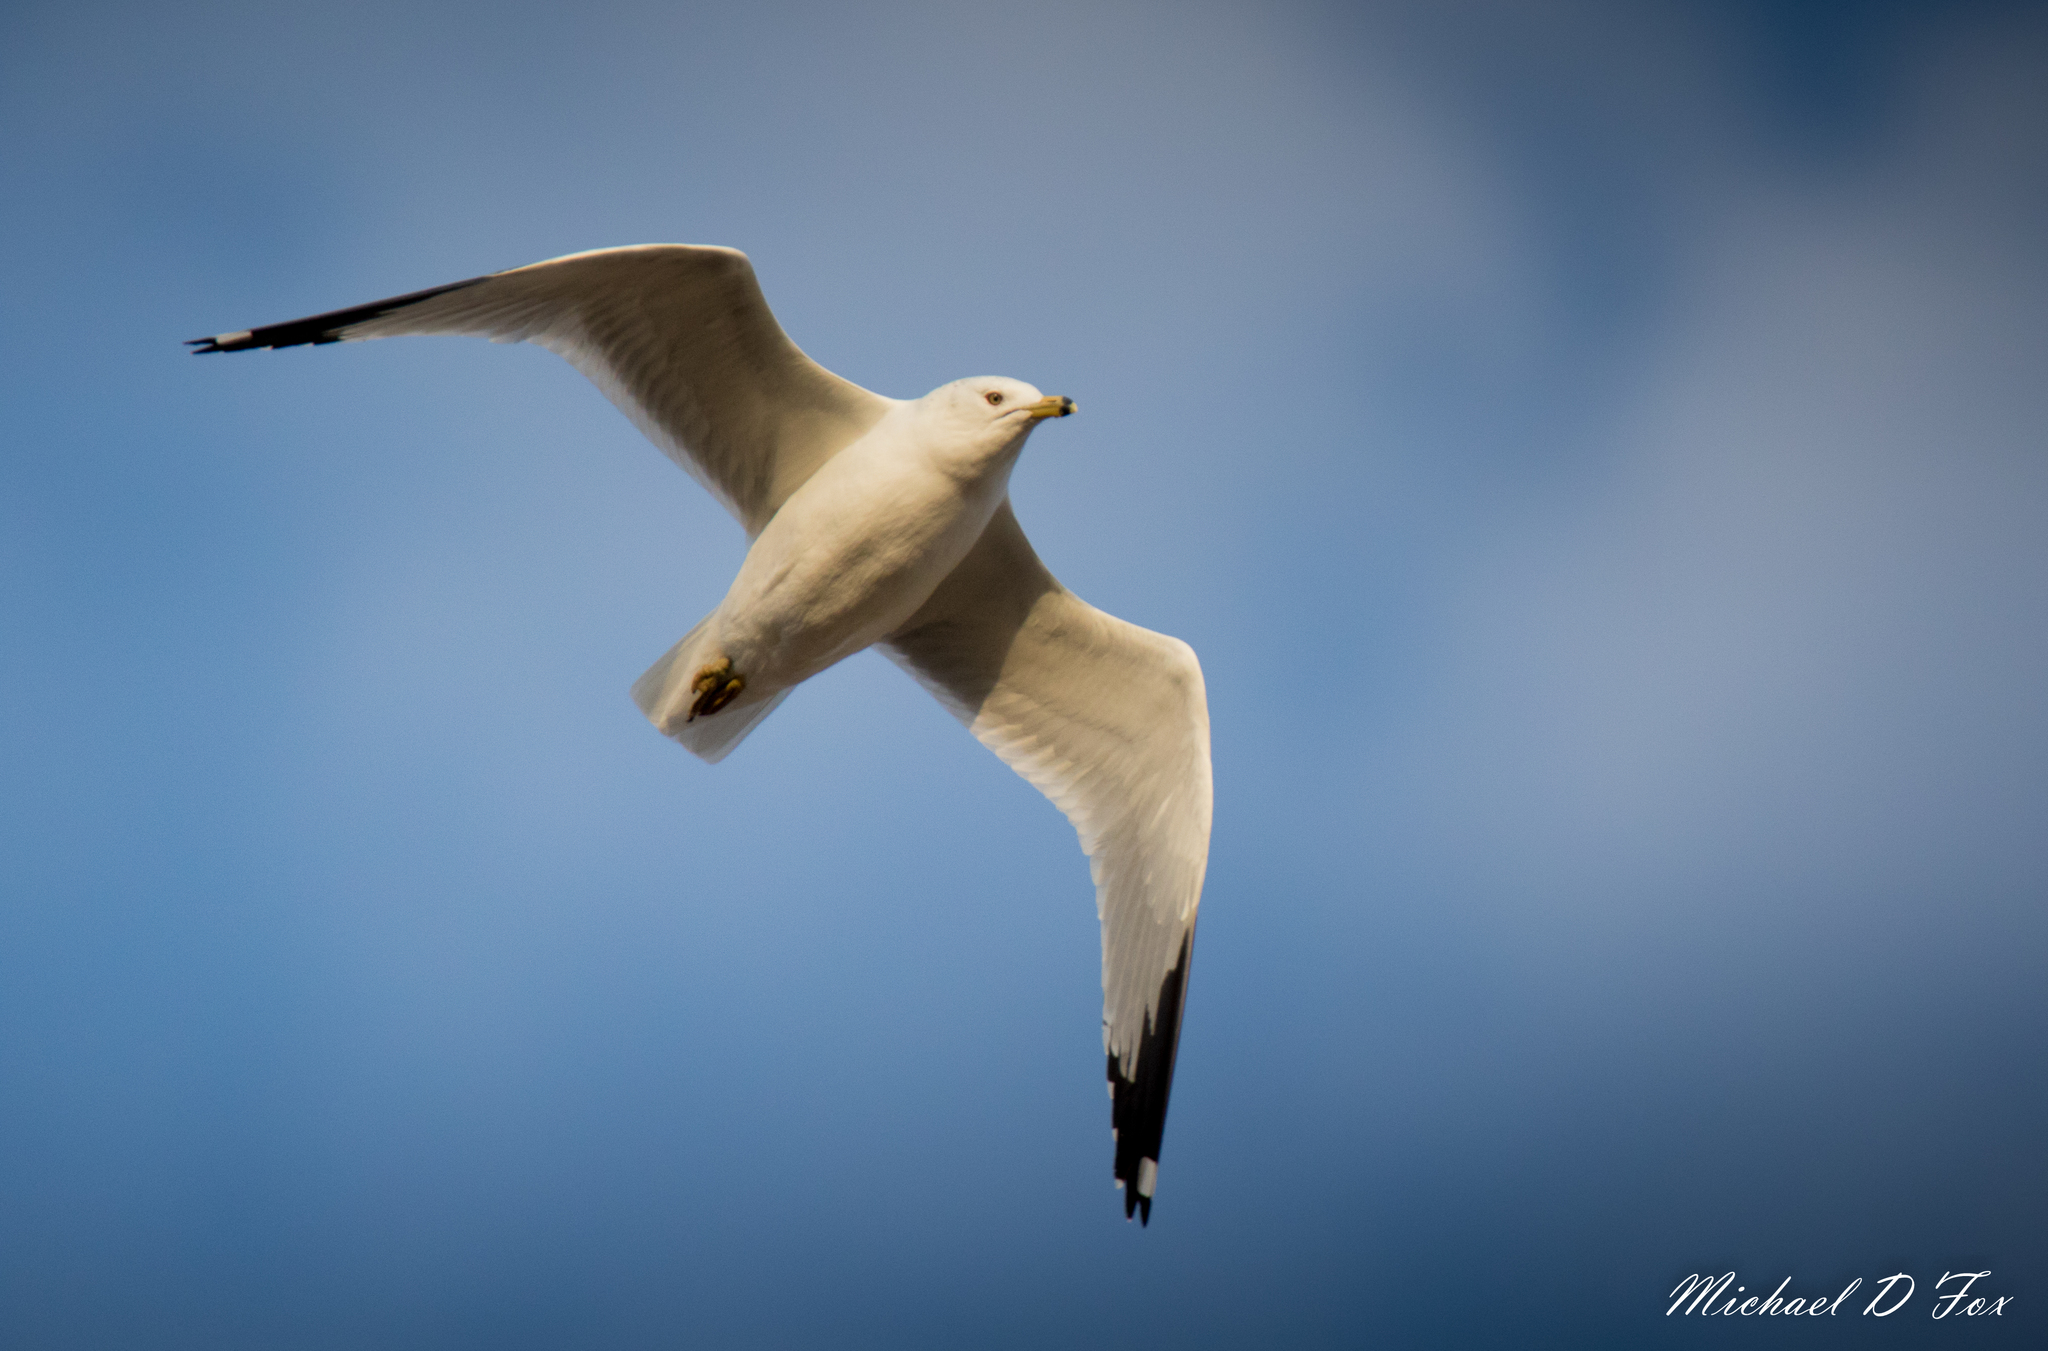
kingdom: Animalia
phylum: Chordata
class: Aves
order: Charadriiformes
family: Laridae
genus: Larus
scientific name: Larus delawarensis
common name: Ring-billed gull
